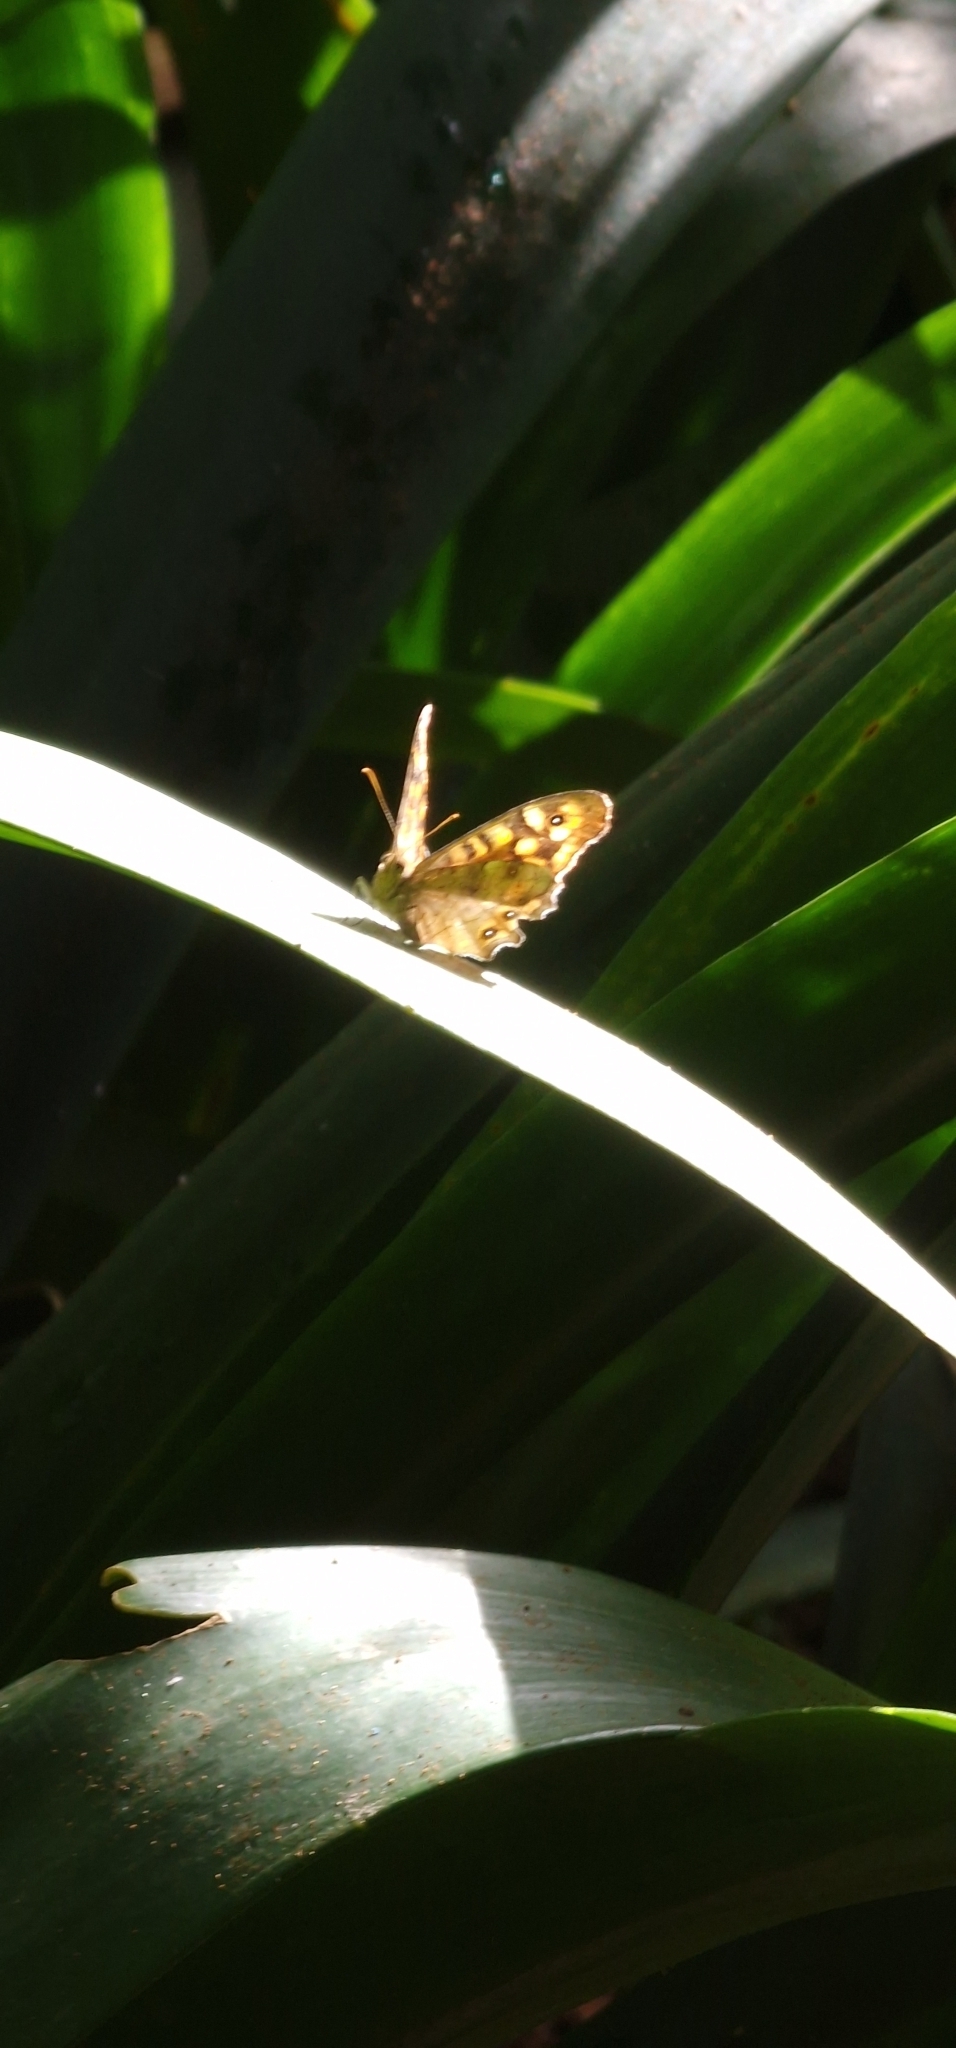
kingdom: Animalia
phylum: Arthropoda
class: Insecta
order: Lepidoptera
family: Nymphalidae
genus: Pararge
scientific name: Pararge aegeria
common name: Speckled wood
